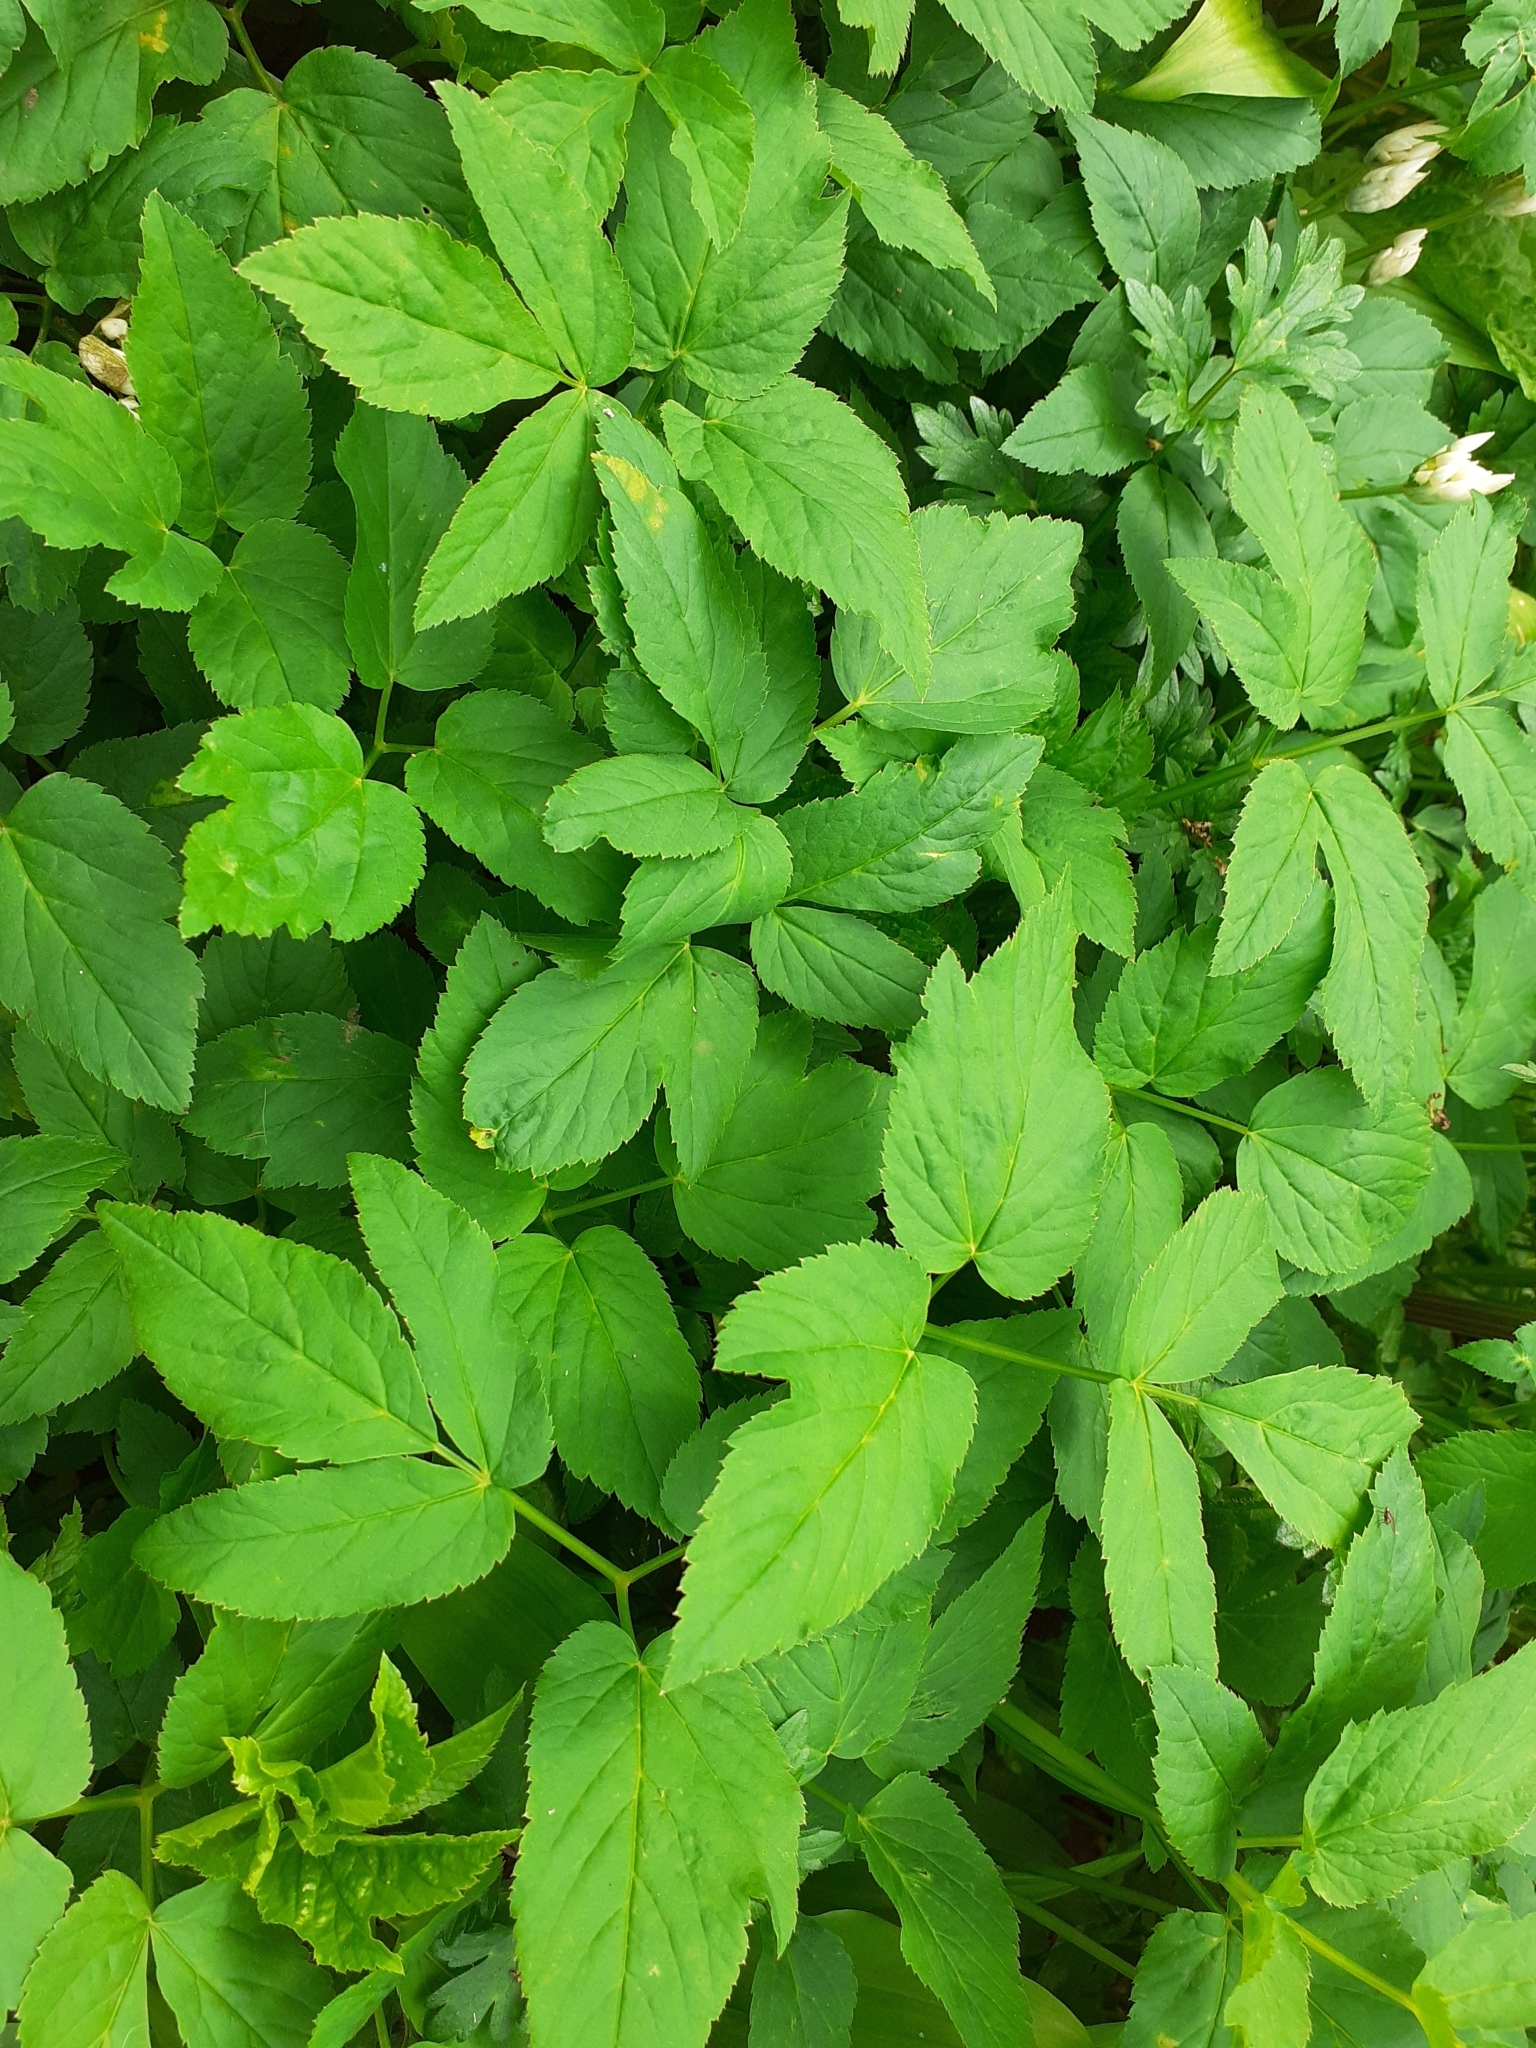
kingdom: Plantae
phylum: Tracheophyta
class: Magnoliopsida
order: Apiales
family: Apiaceae
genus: Aegopodium
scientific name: Aegopodium podagraria
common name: Ground-elder
